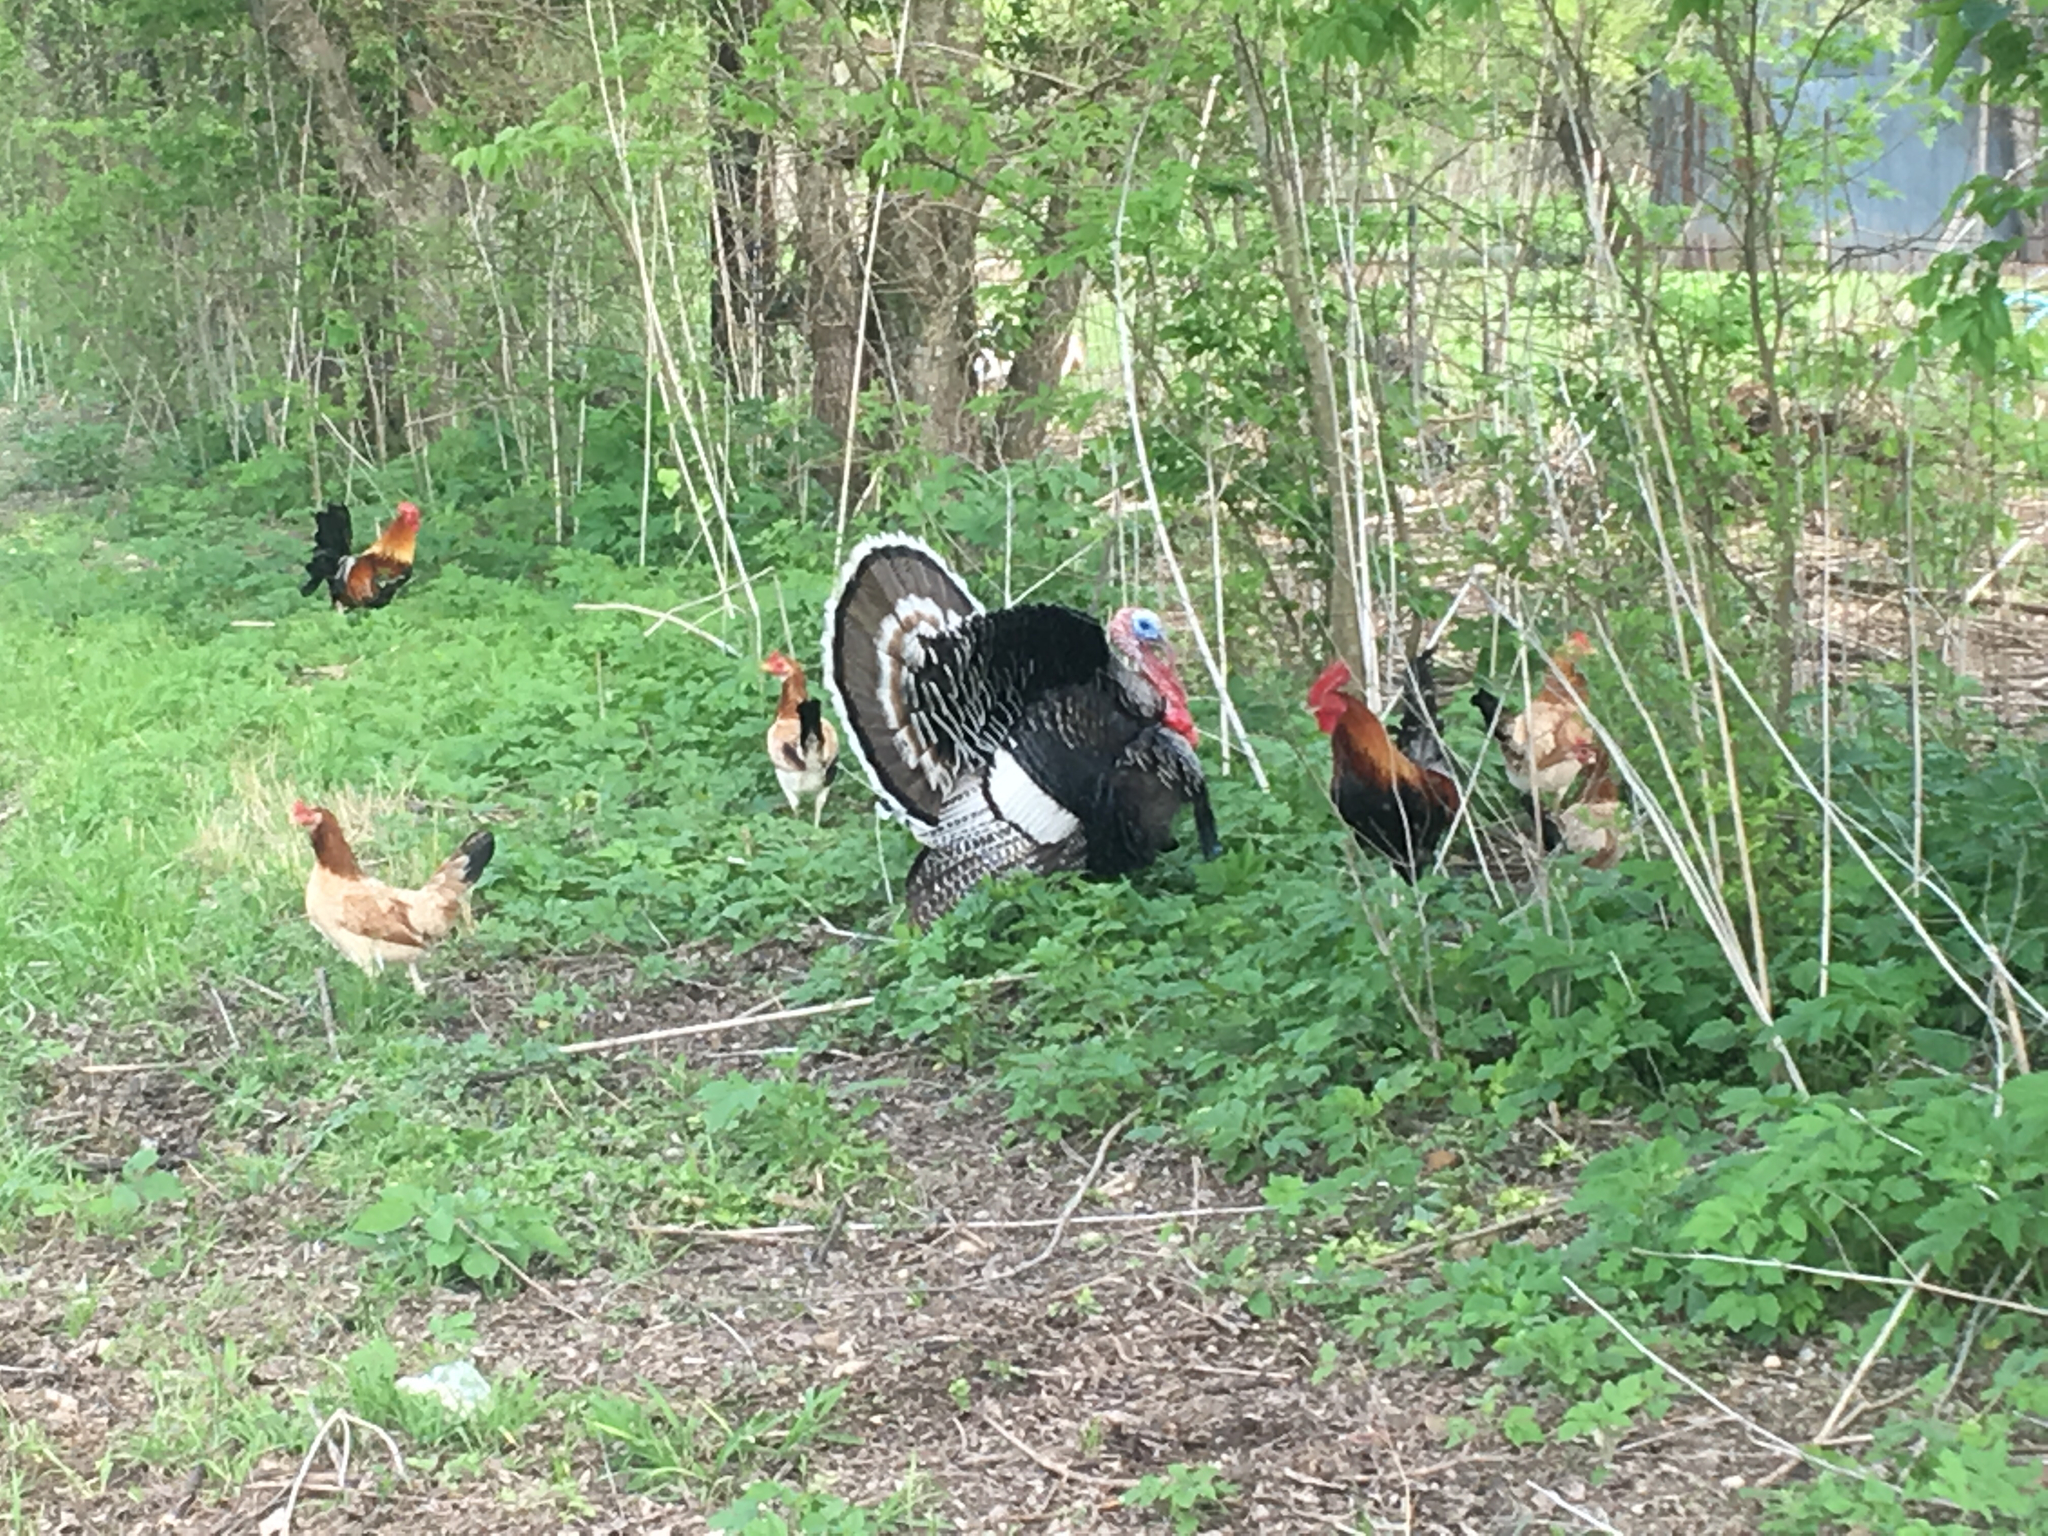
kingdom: Animalia
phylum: Chordata
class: Aves
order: Galliformes
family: Phasianidae
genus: Meleagris
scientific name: Meleagris gallopavo
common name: Wild turkey
